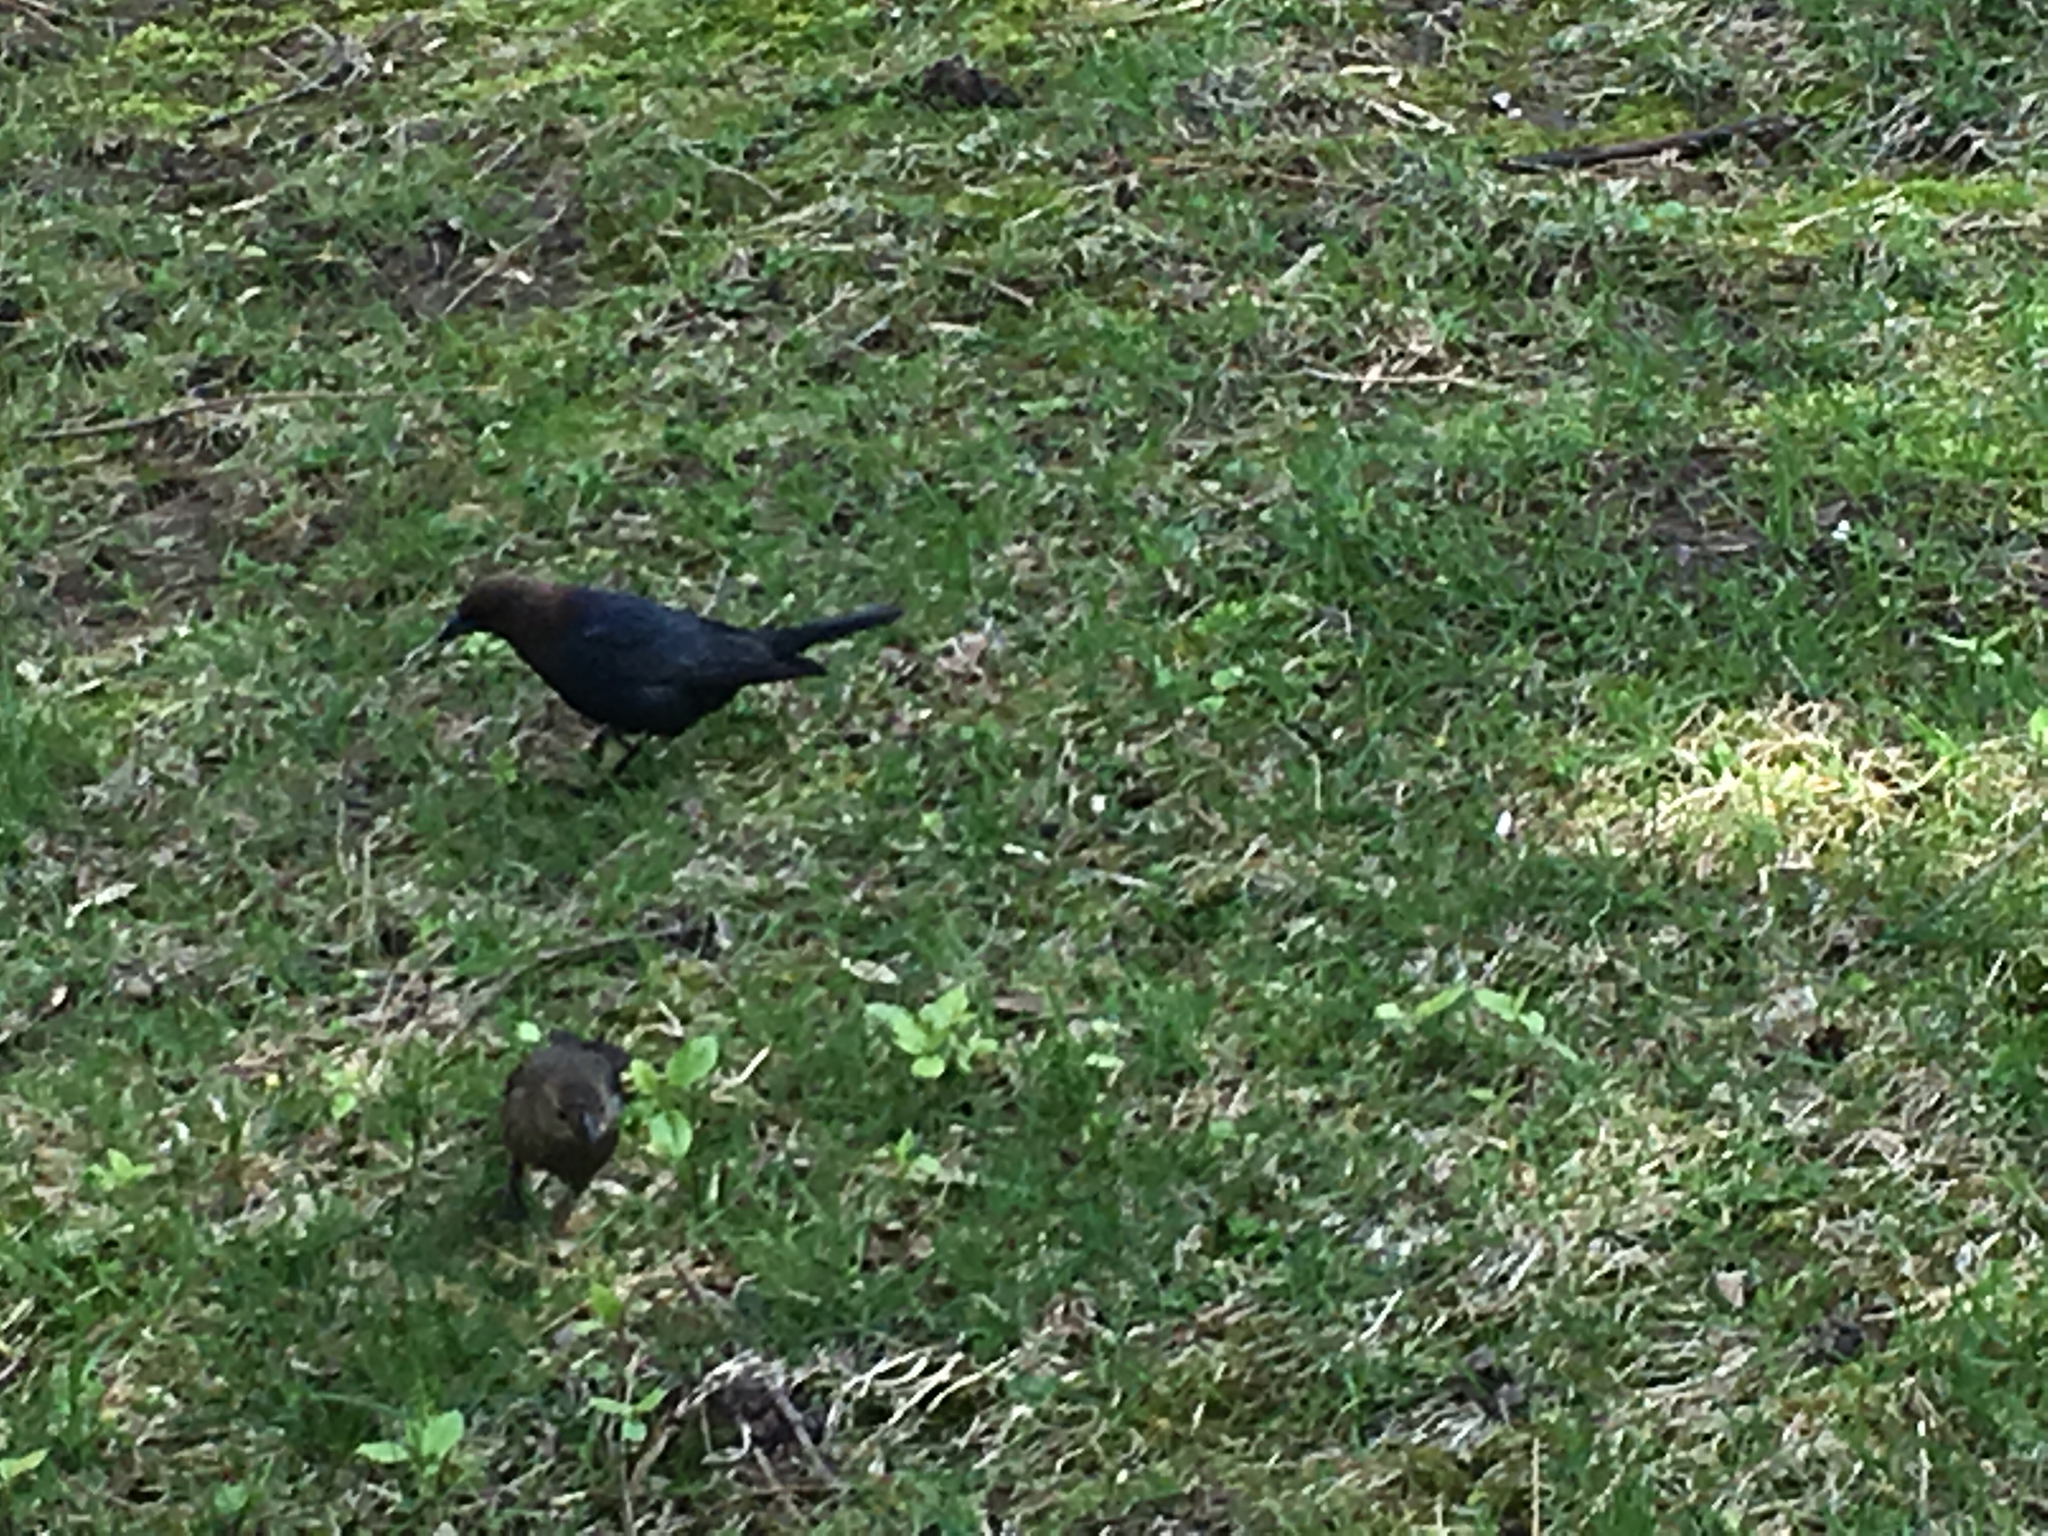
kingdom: Animalia
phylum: Chordata
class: Aves
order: Passeriformes
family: Icteridae
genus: Molothrus
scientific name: Molothrus ater
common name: Brown-headed cowbird
